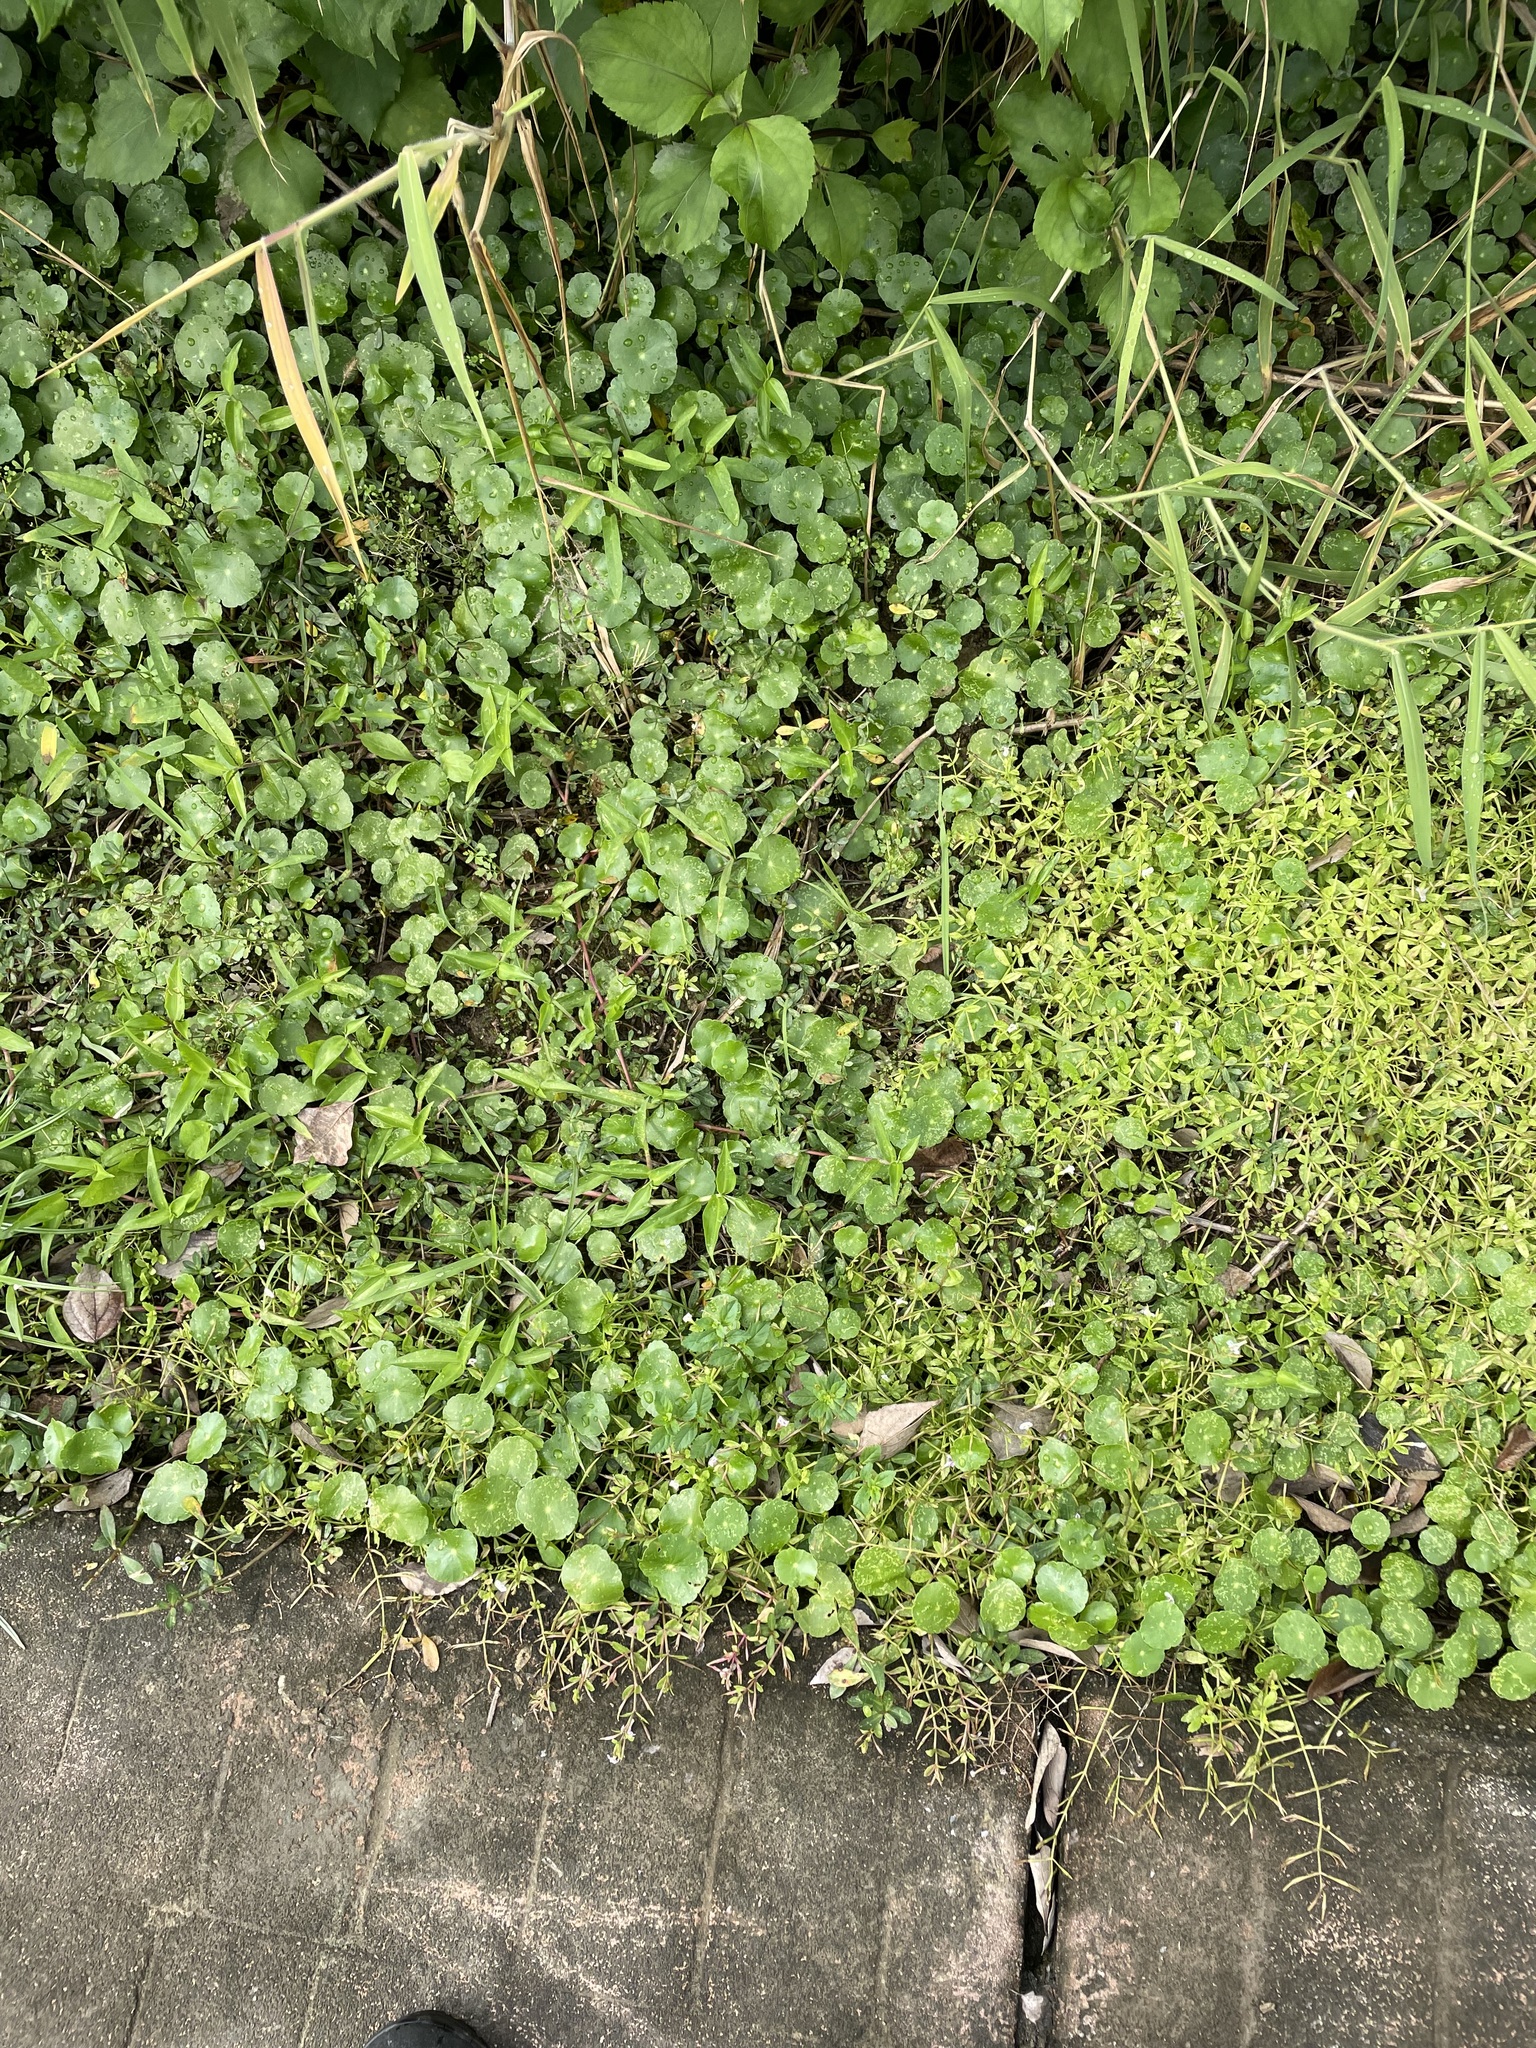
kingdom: Plantae
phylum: Tracheophyta
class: Magnoliopsida
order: Apiales
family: Araliaceae
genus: Hydrocotyle
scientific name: Hydrocotyle verticillata
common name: Whorled marshpennywort
